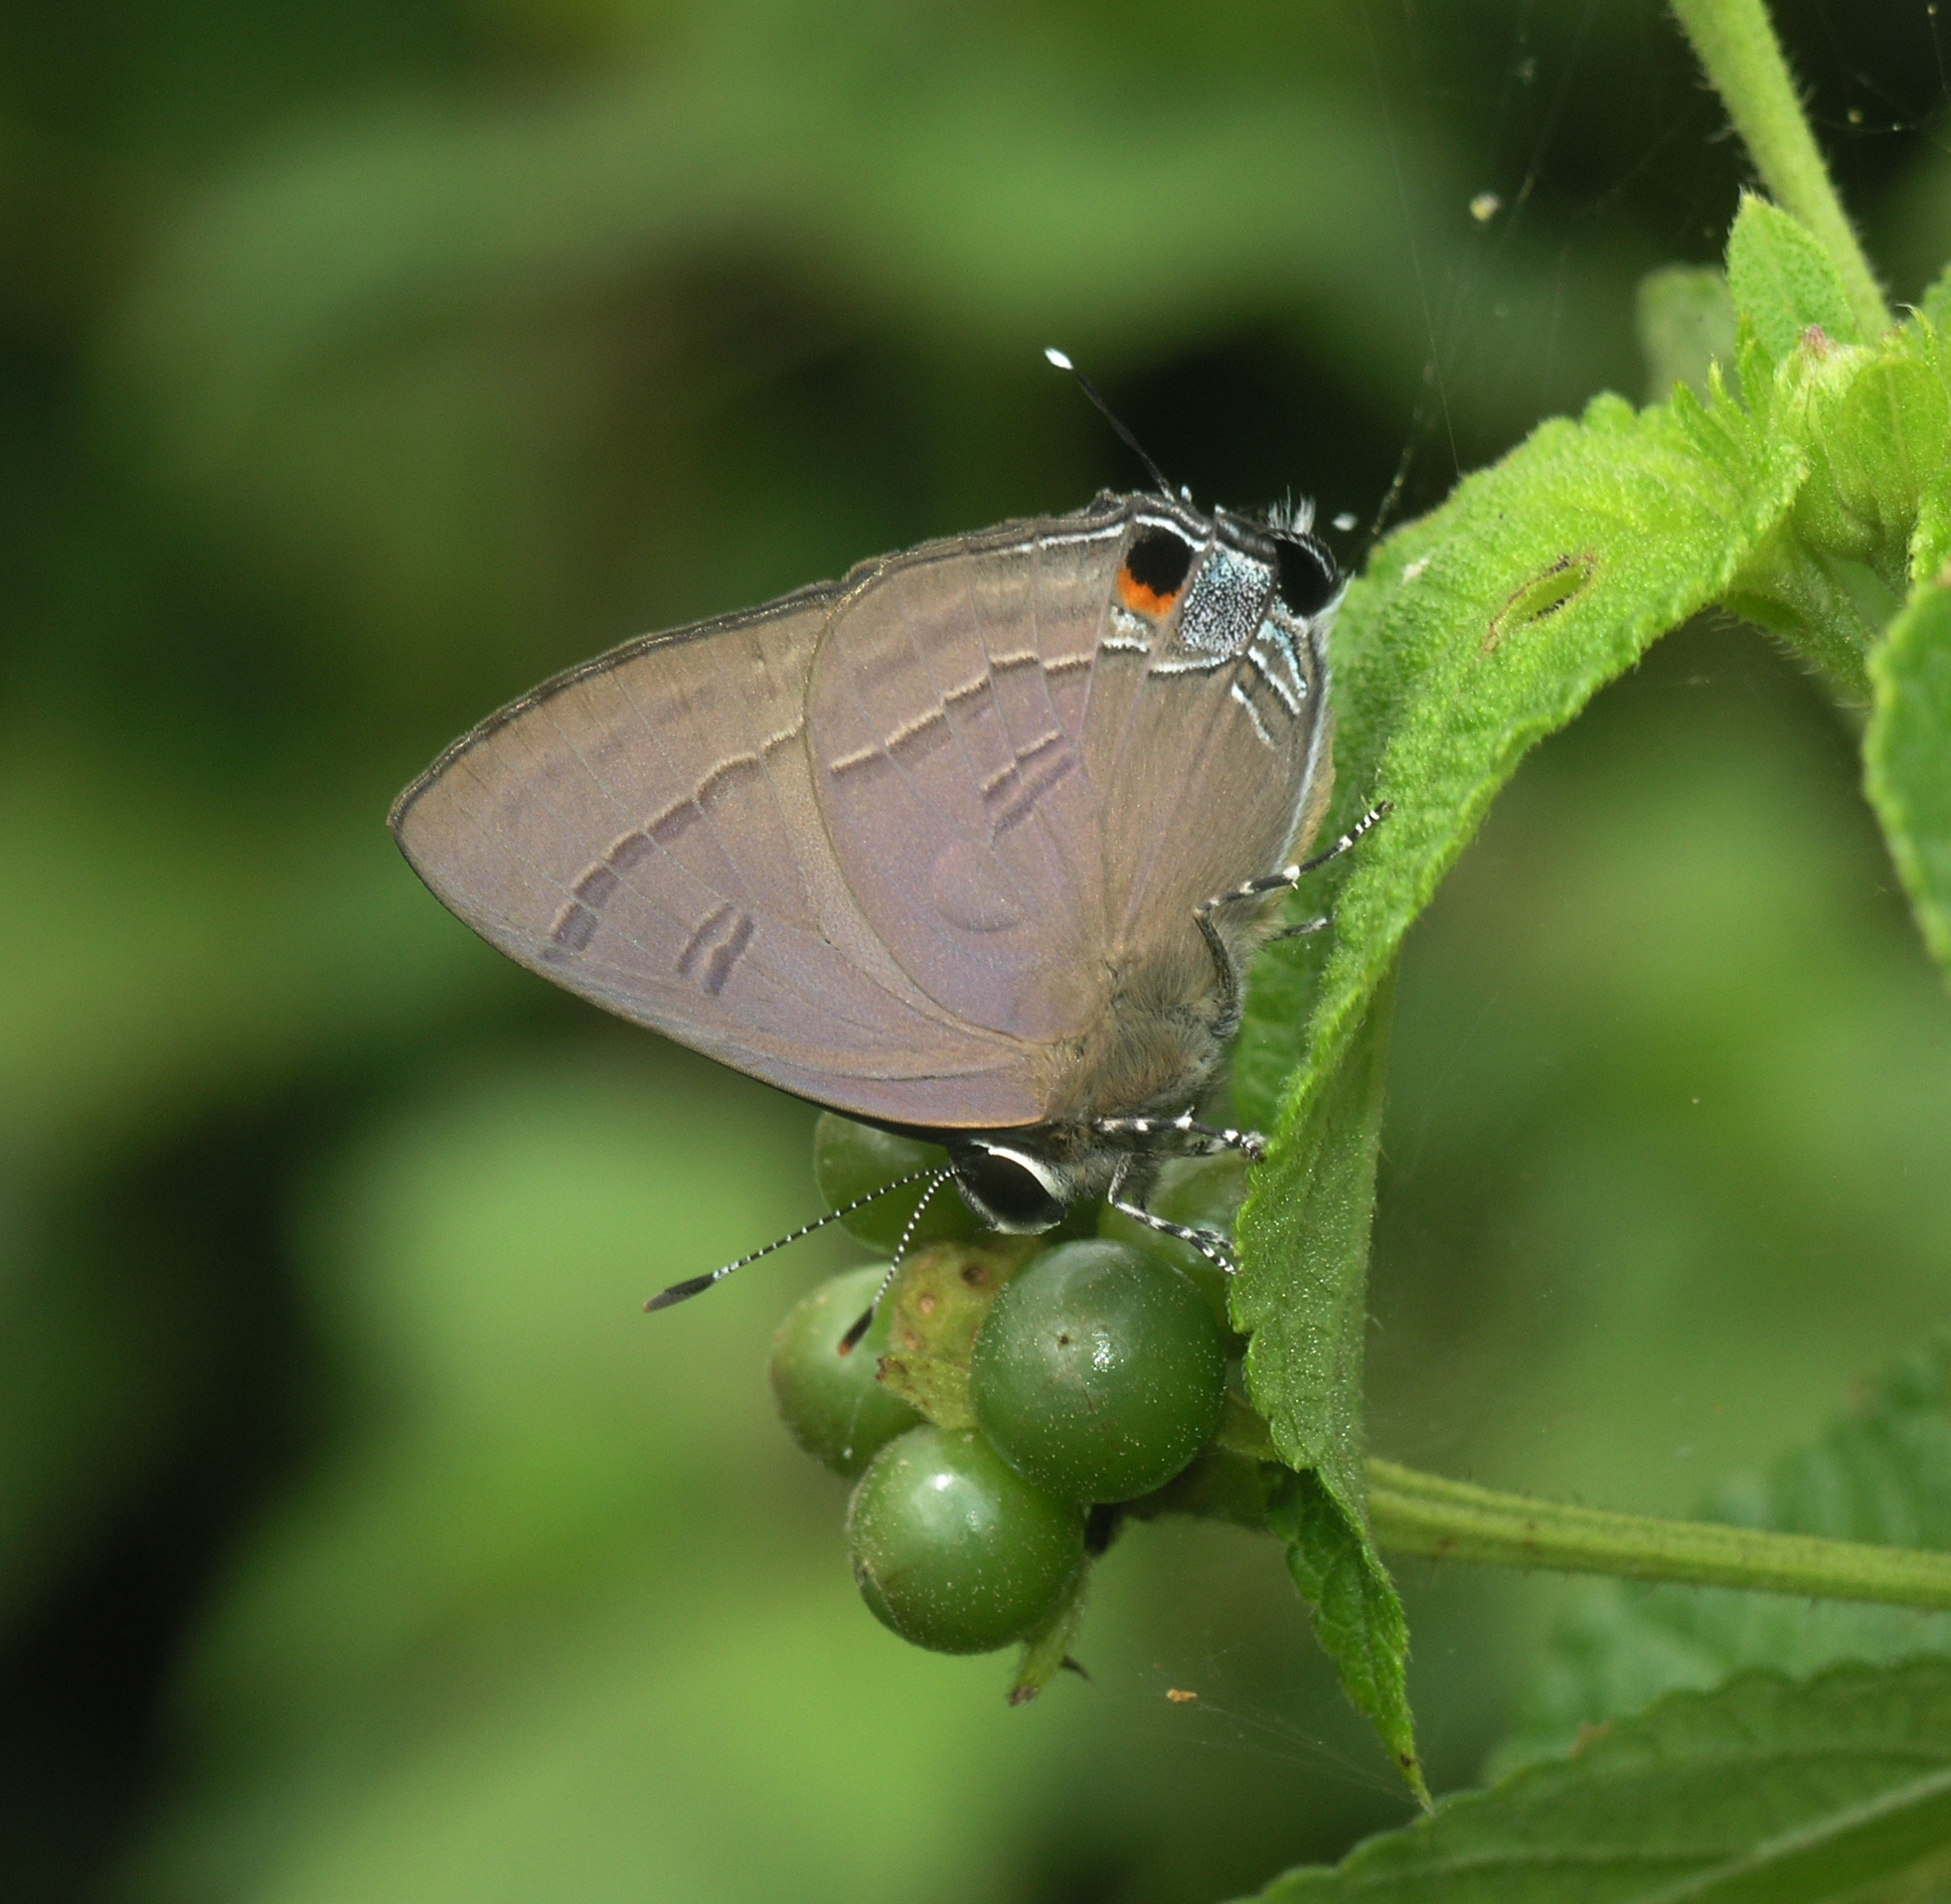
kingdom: Animalia
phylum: Arthropoda
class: Insecta
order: Lepidoptera
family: Lycaenidae
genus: Rapala
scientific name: Rapala manea
